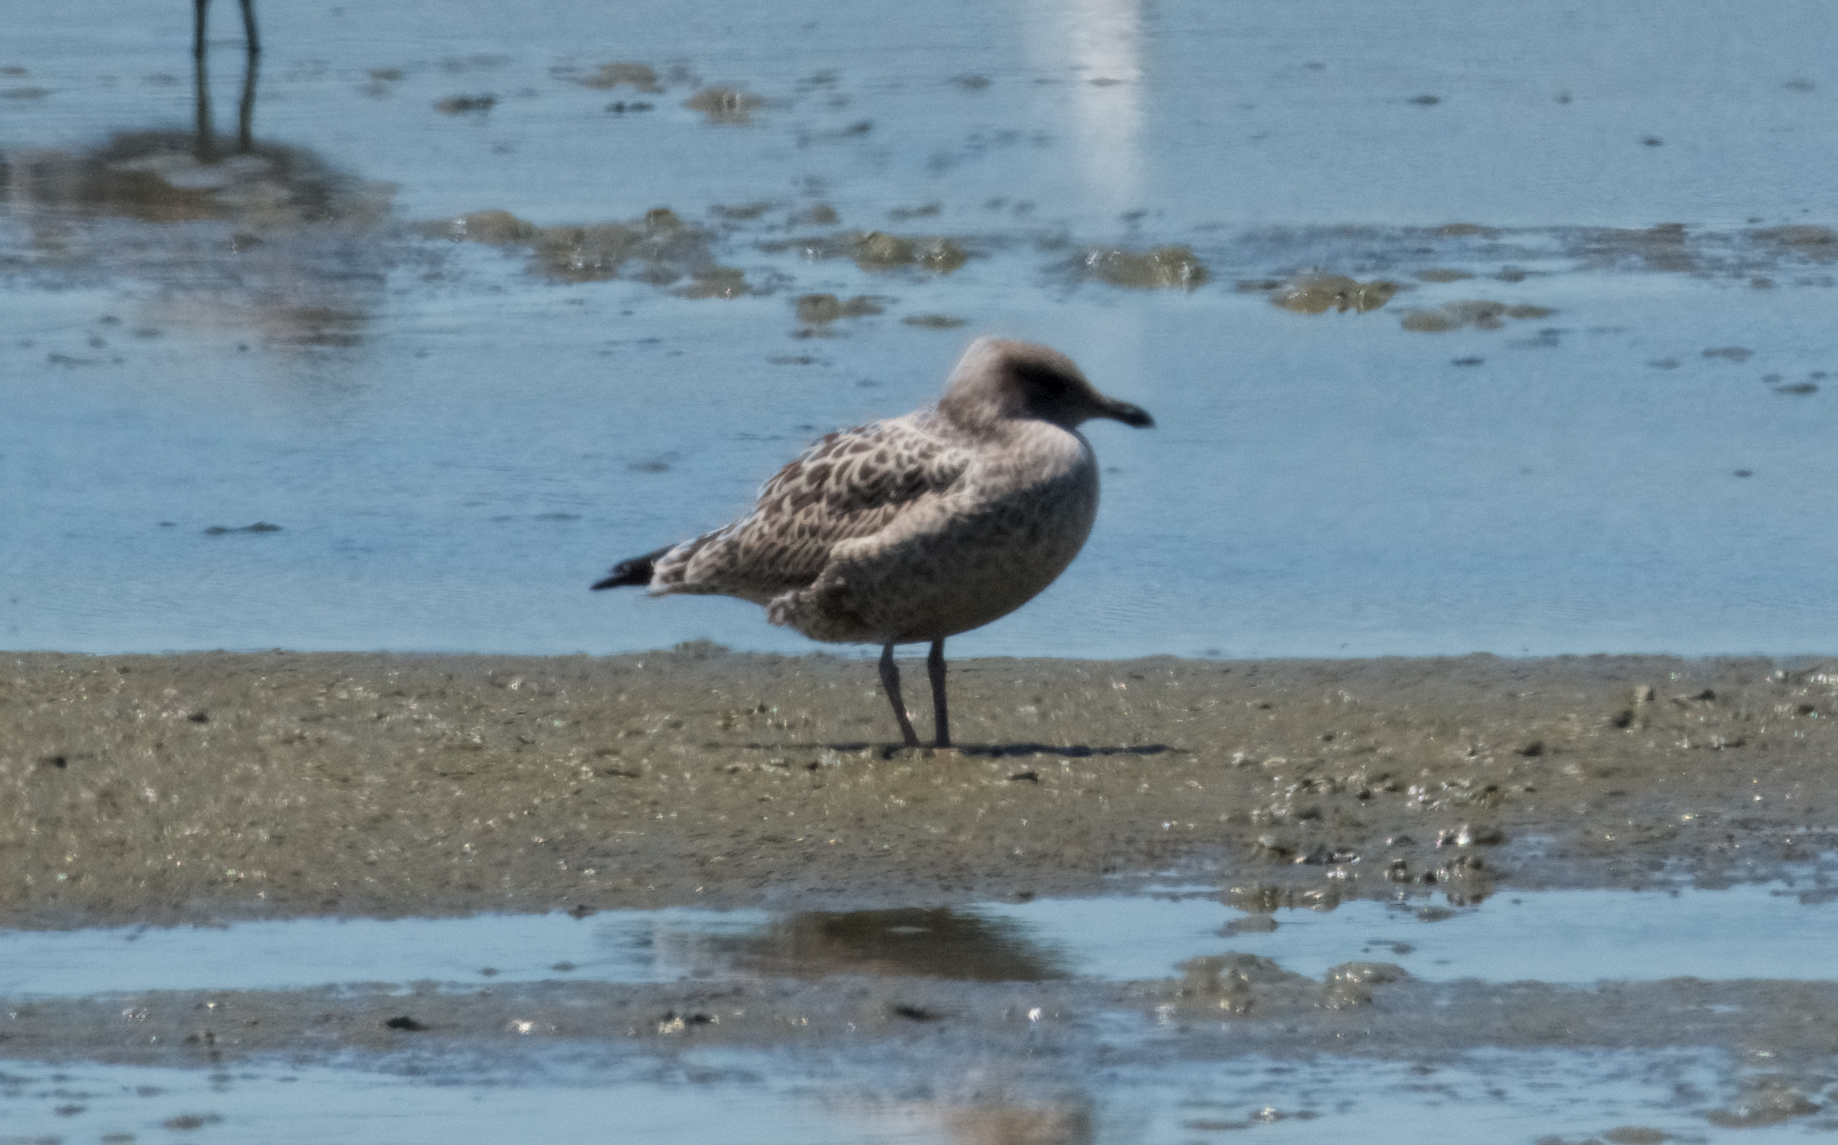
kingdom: Animalia
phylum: Chordata
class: Aves
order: Charadriiformes
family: Laridae
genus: Larus
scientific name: Larus californicus
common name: California gull
